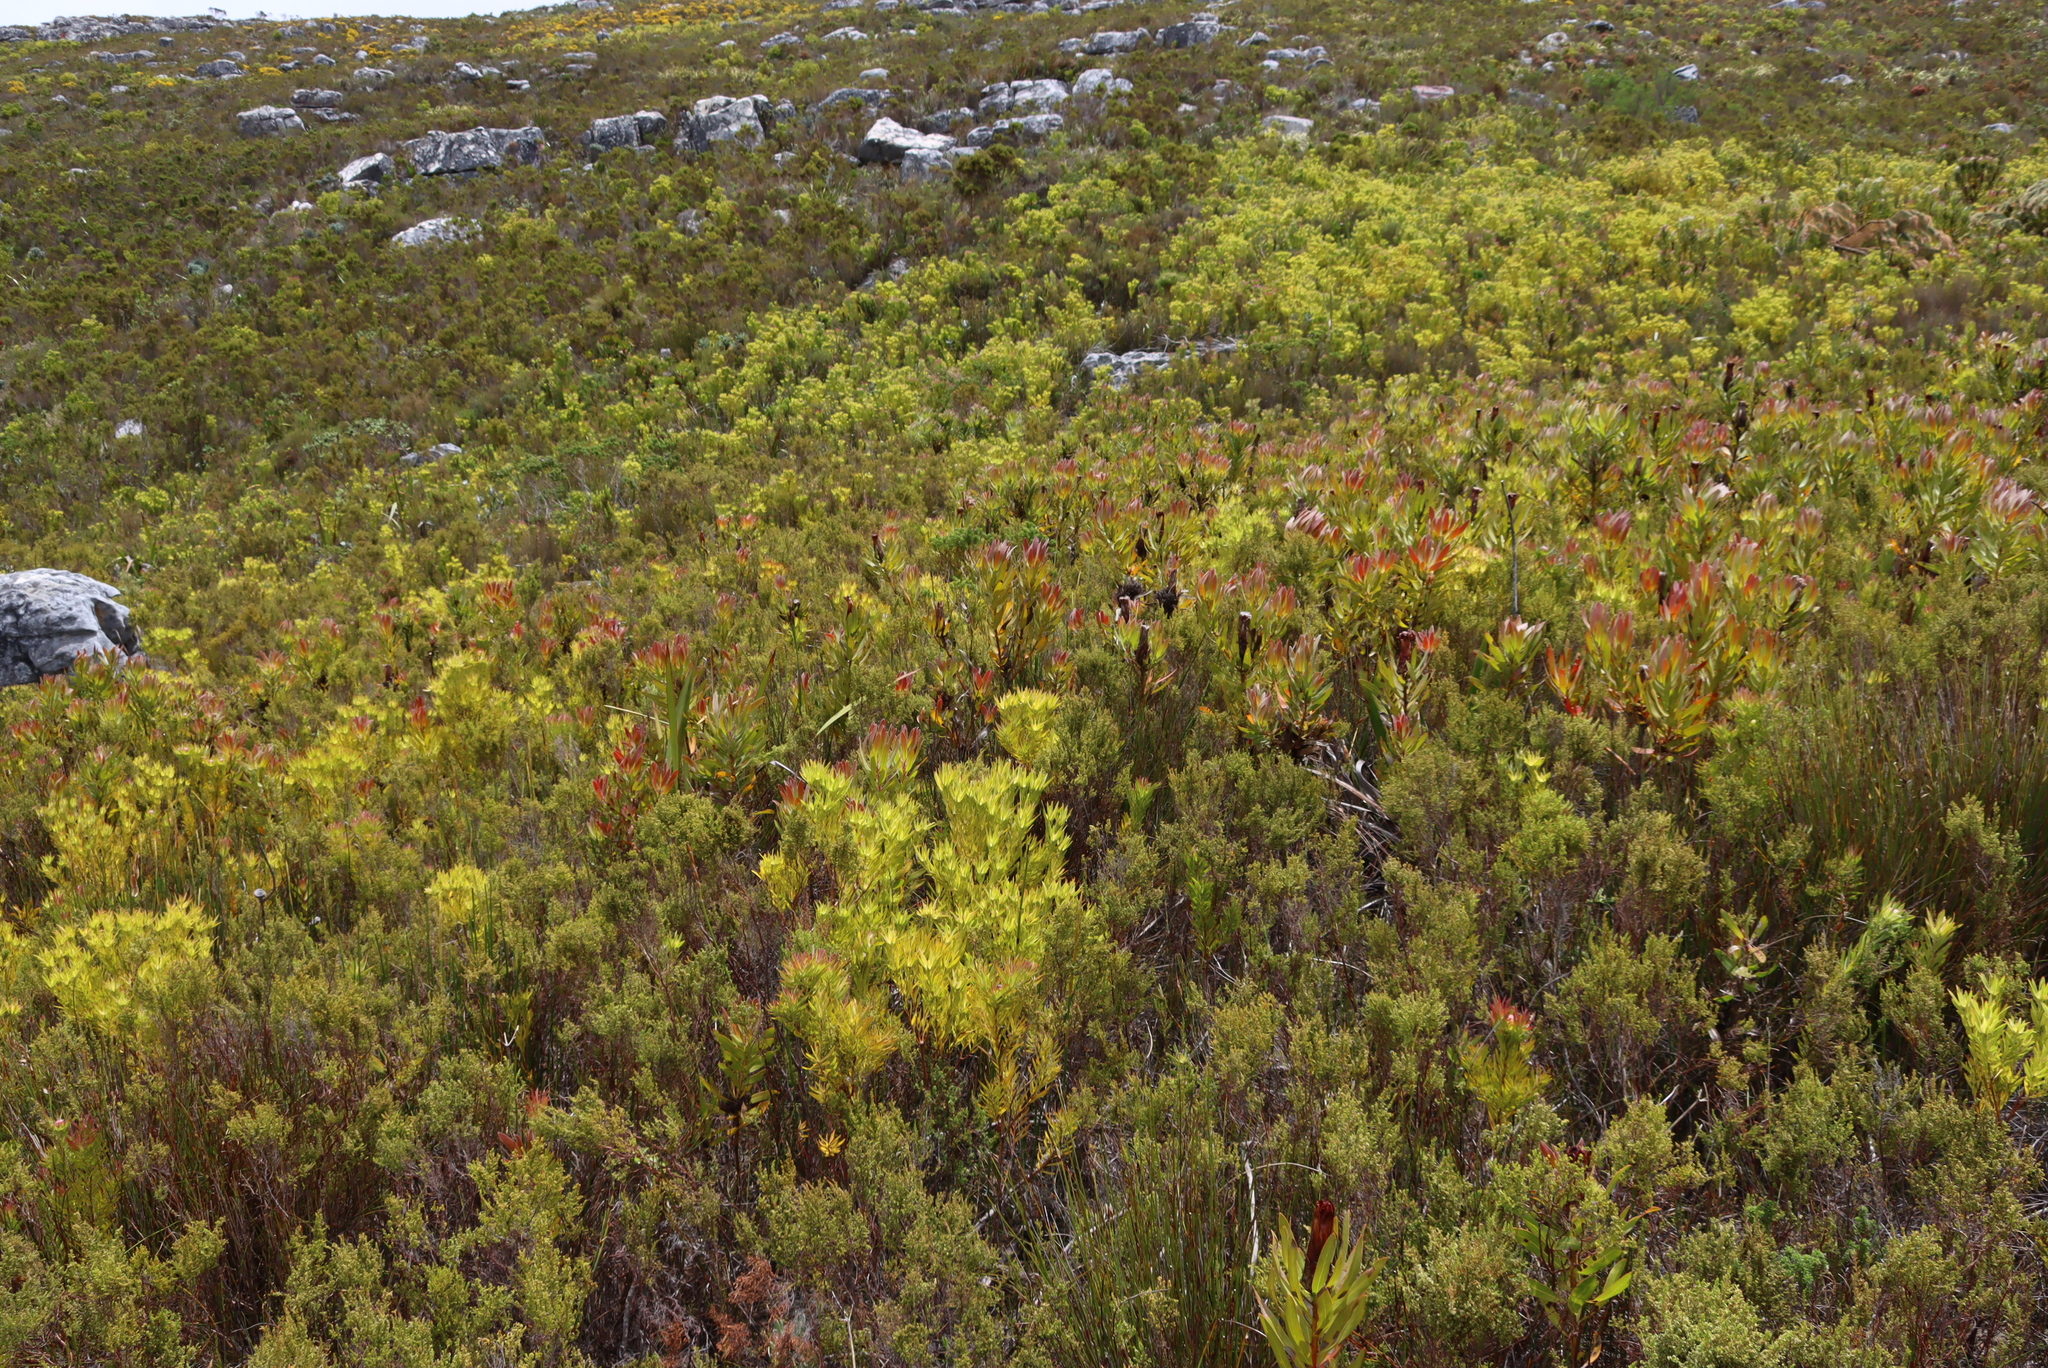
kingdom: Plantae
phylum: Tracheophyta
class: Magnoliopsida
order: Proteales
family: Proteaceae
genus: Leucadendron
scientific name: Leucadendron xanthoconus
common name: Sickle-leaf conebush
